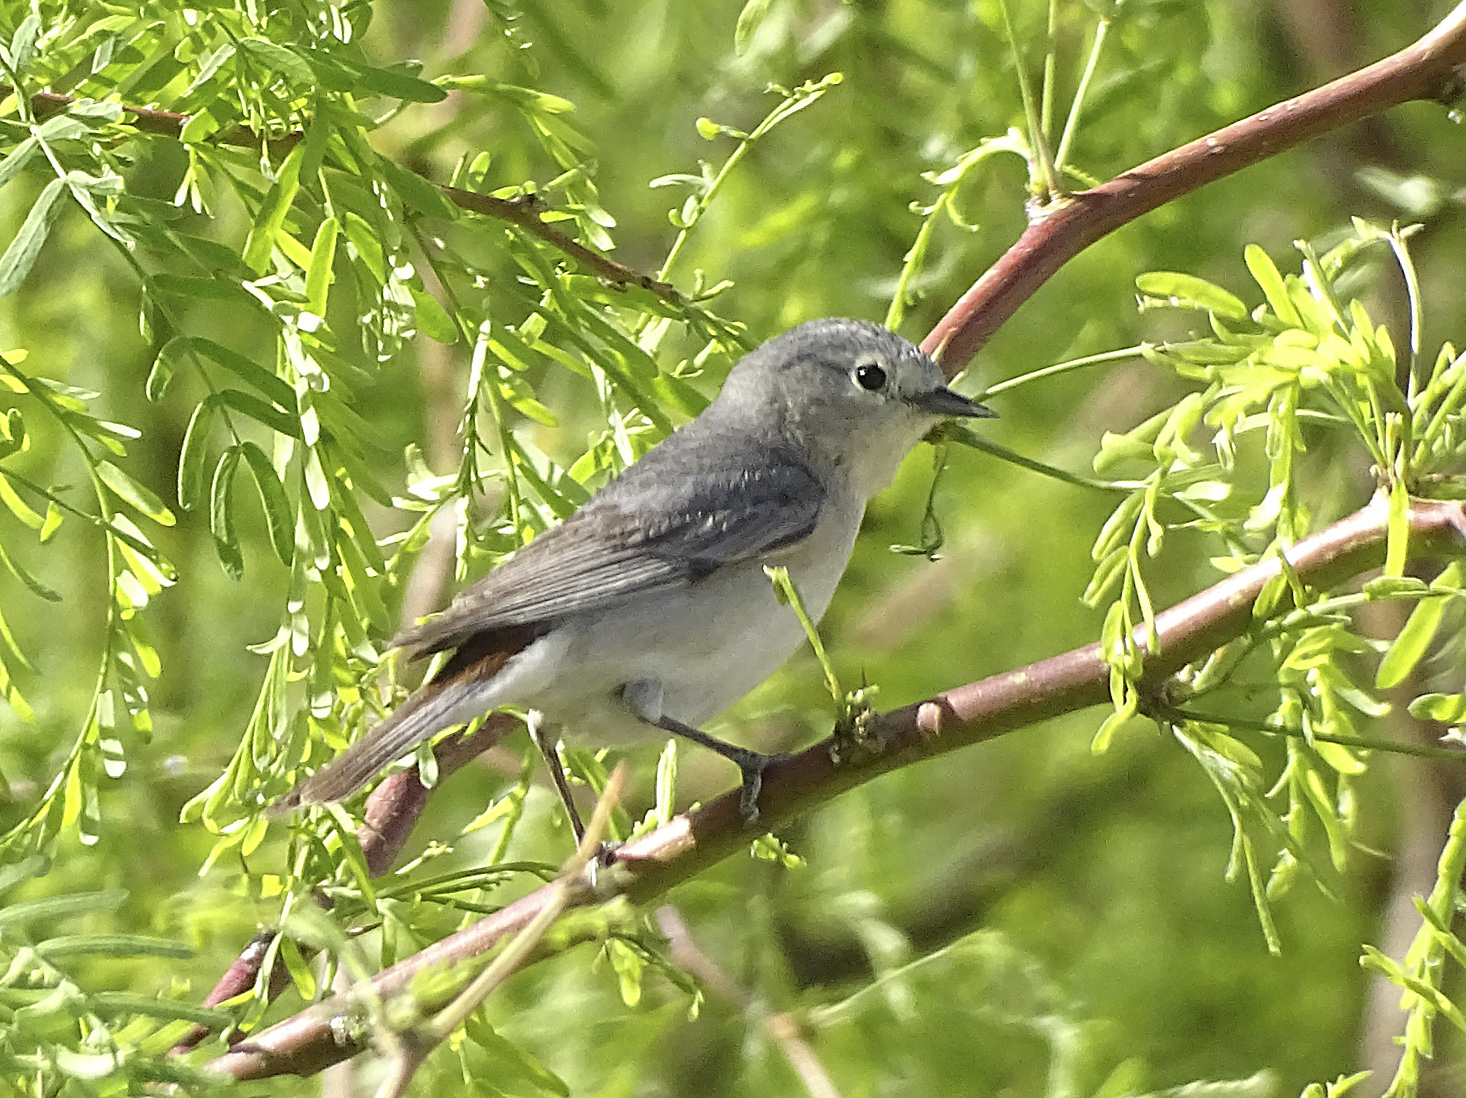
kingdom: Animalia
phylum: Chordata
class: Aves
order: Passeriformes
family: Parulidae
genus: Leiothlypis
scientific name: Leiothlypis luciae
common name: Lucy's warbler
